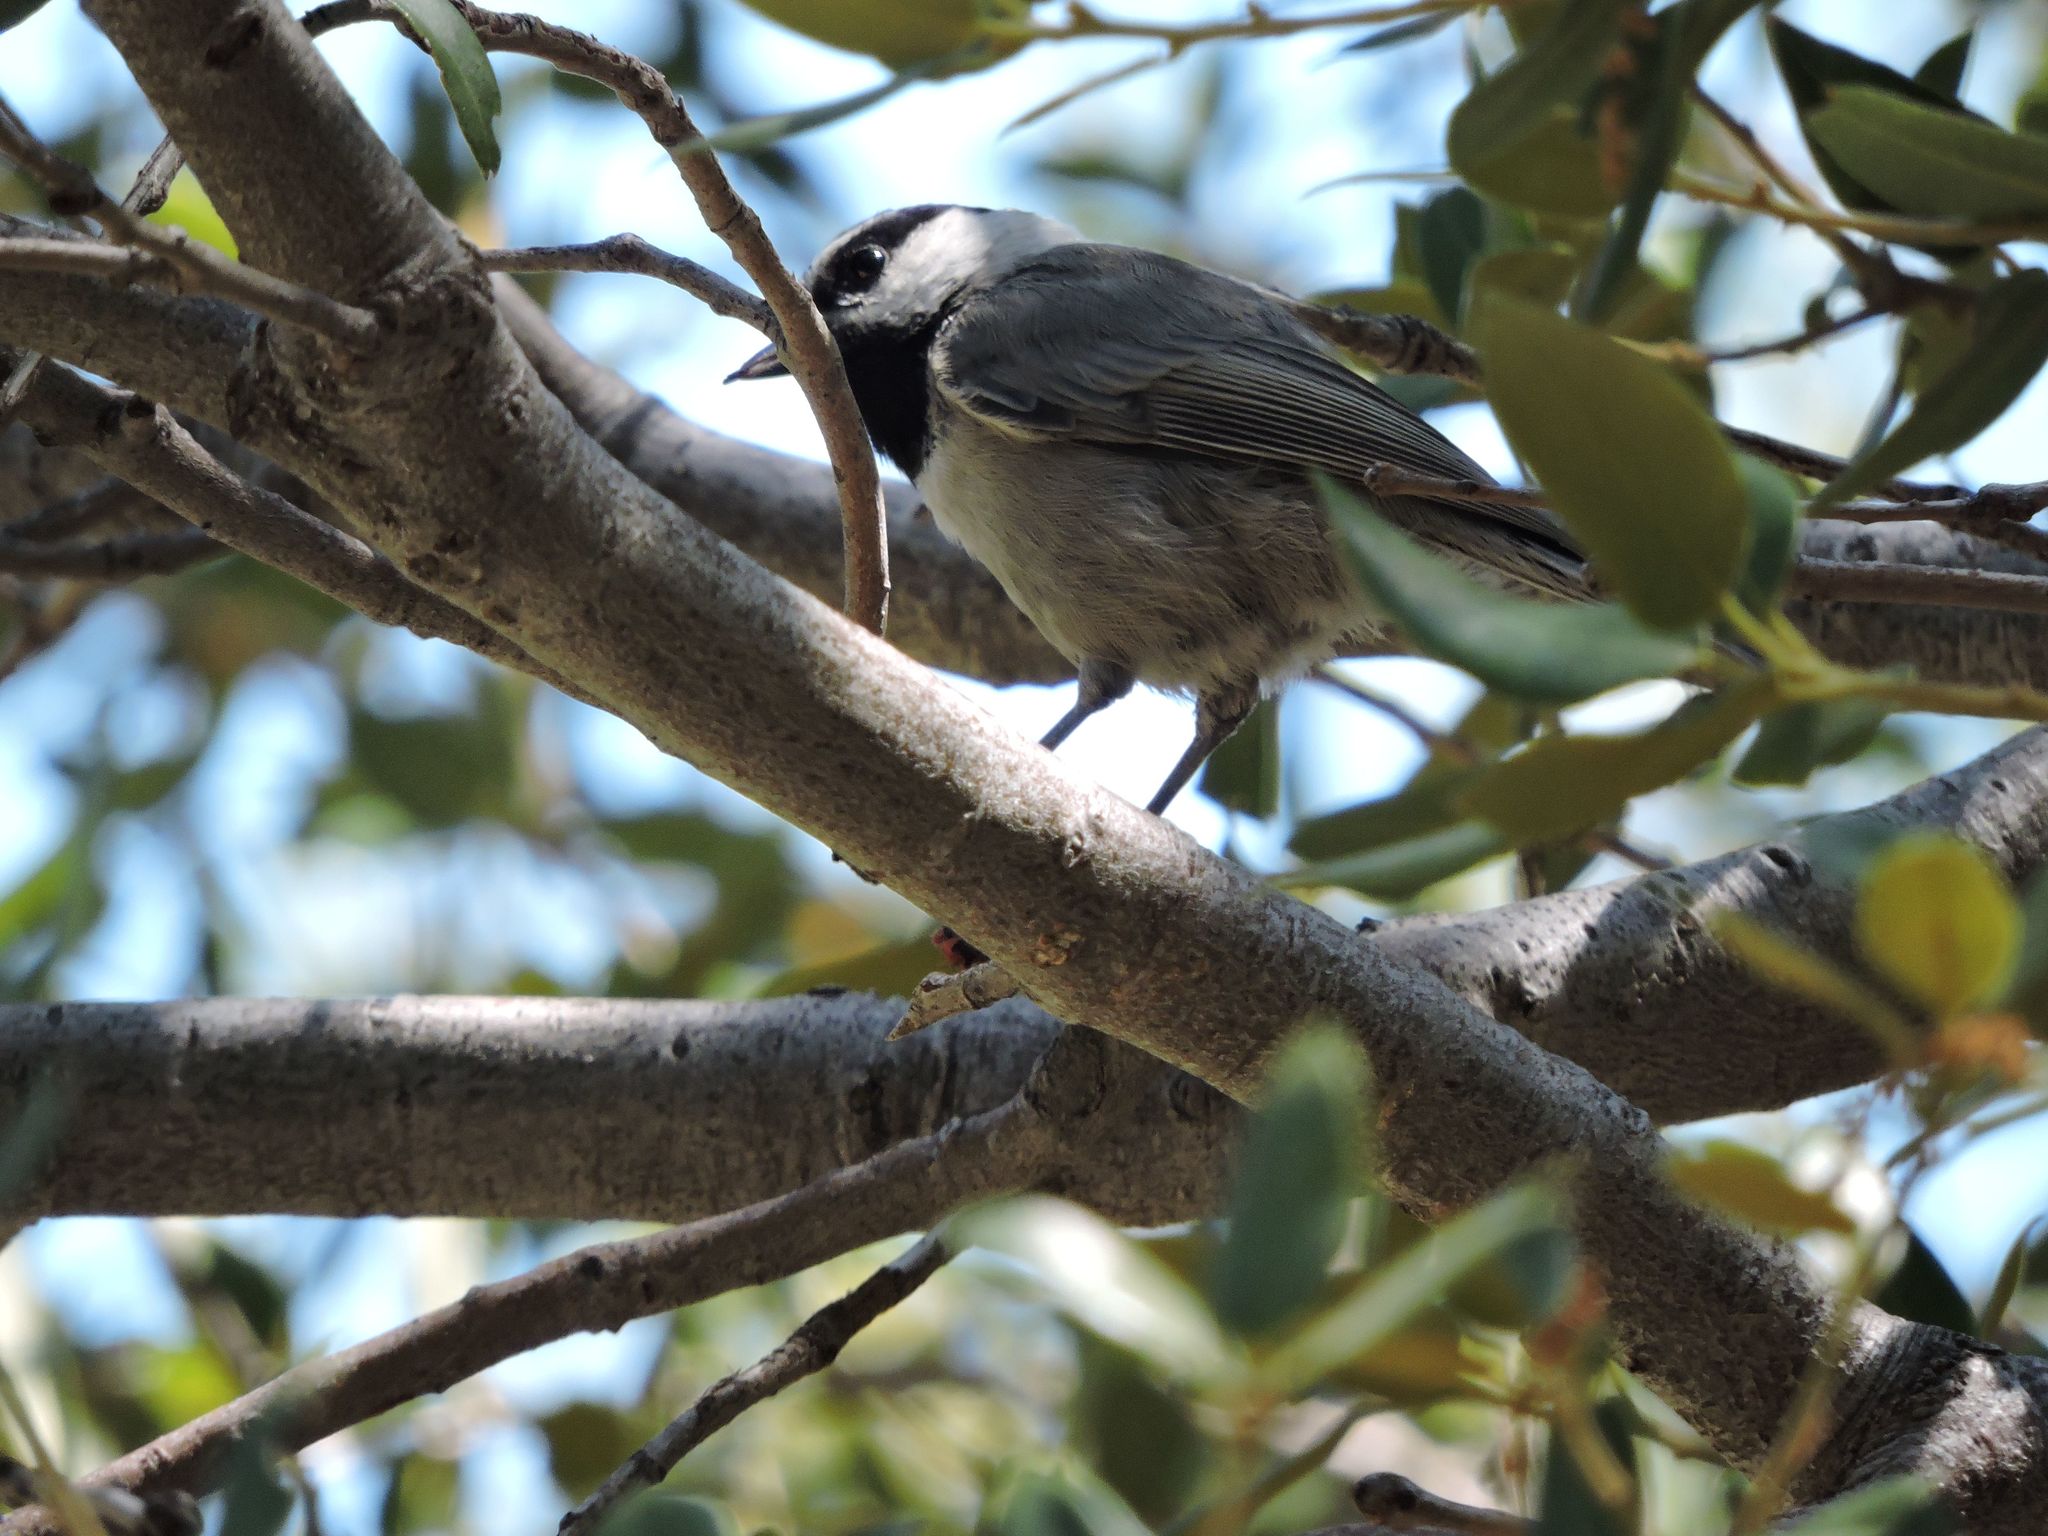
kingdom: Animalia
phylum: Chordata
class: Aves
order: Passeriformes
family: Paridae
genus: Poecile
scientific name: Poecile gambeli
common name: Mountain chickadee
